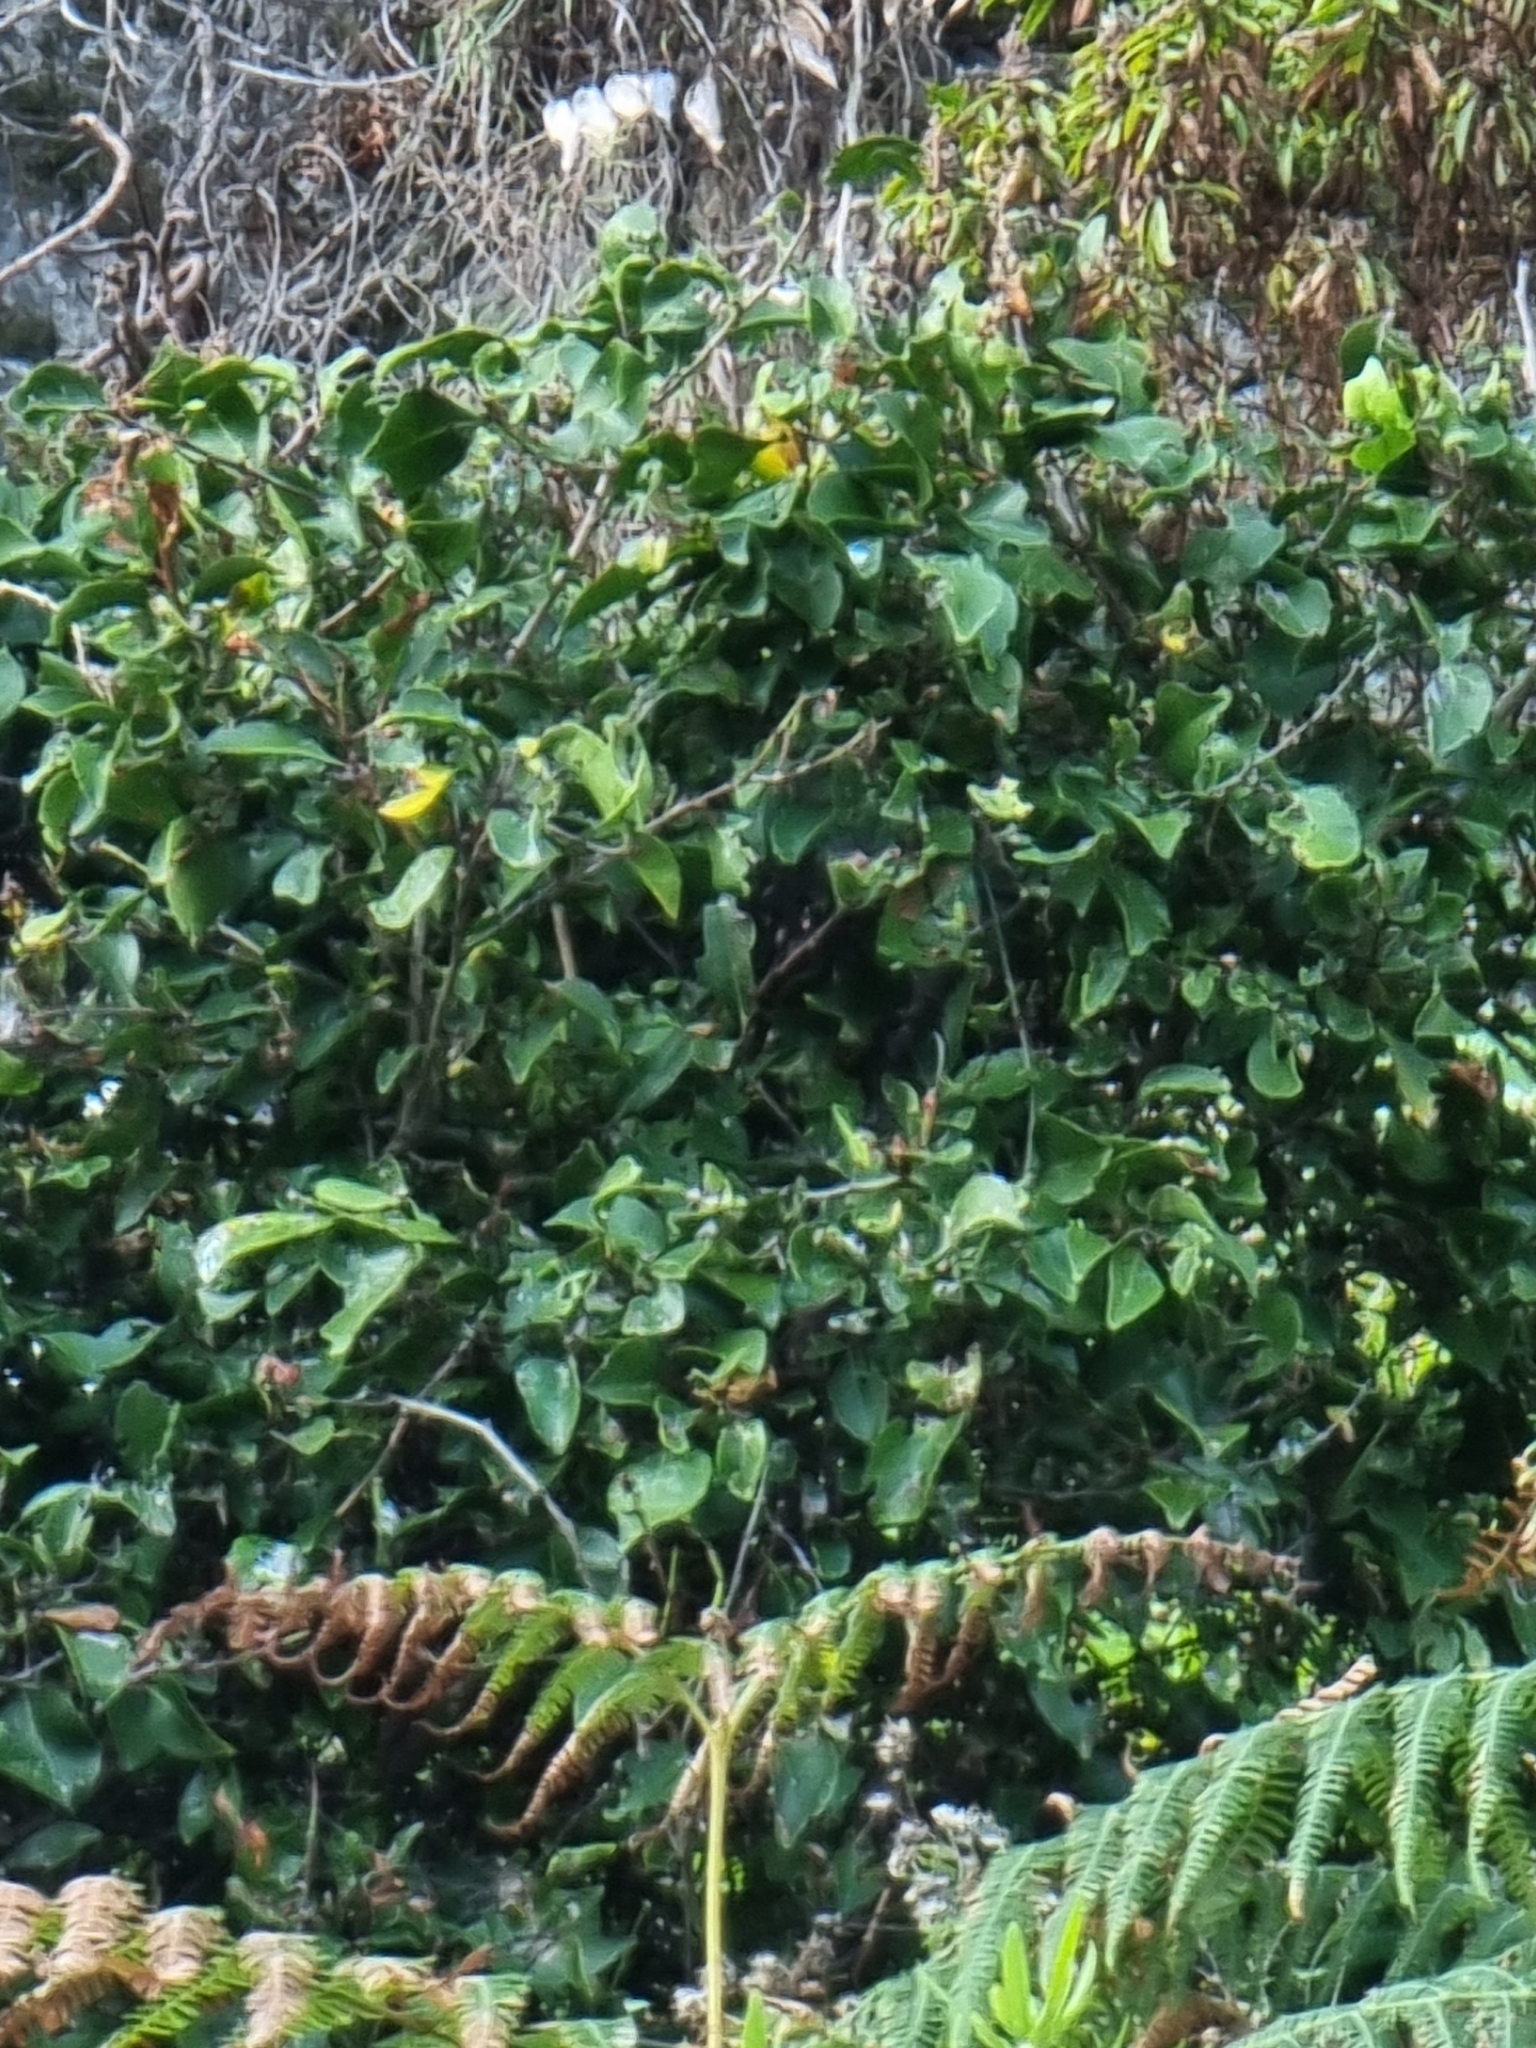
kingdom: Plantae
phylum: Tracheophyta
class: Magnoliopsida
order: Celastrales
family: Celastraceae
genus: Gymnosporia
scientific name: Gymnosporia dryandri
